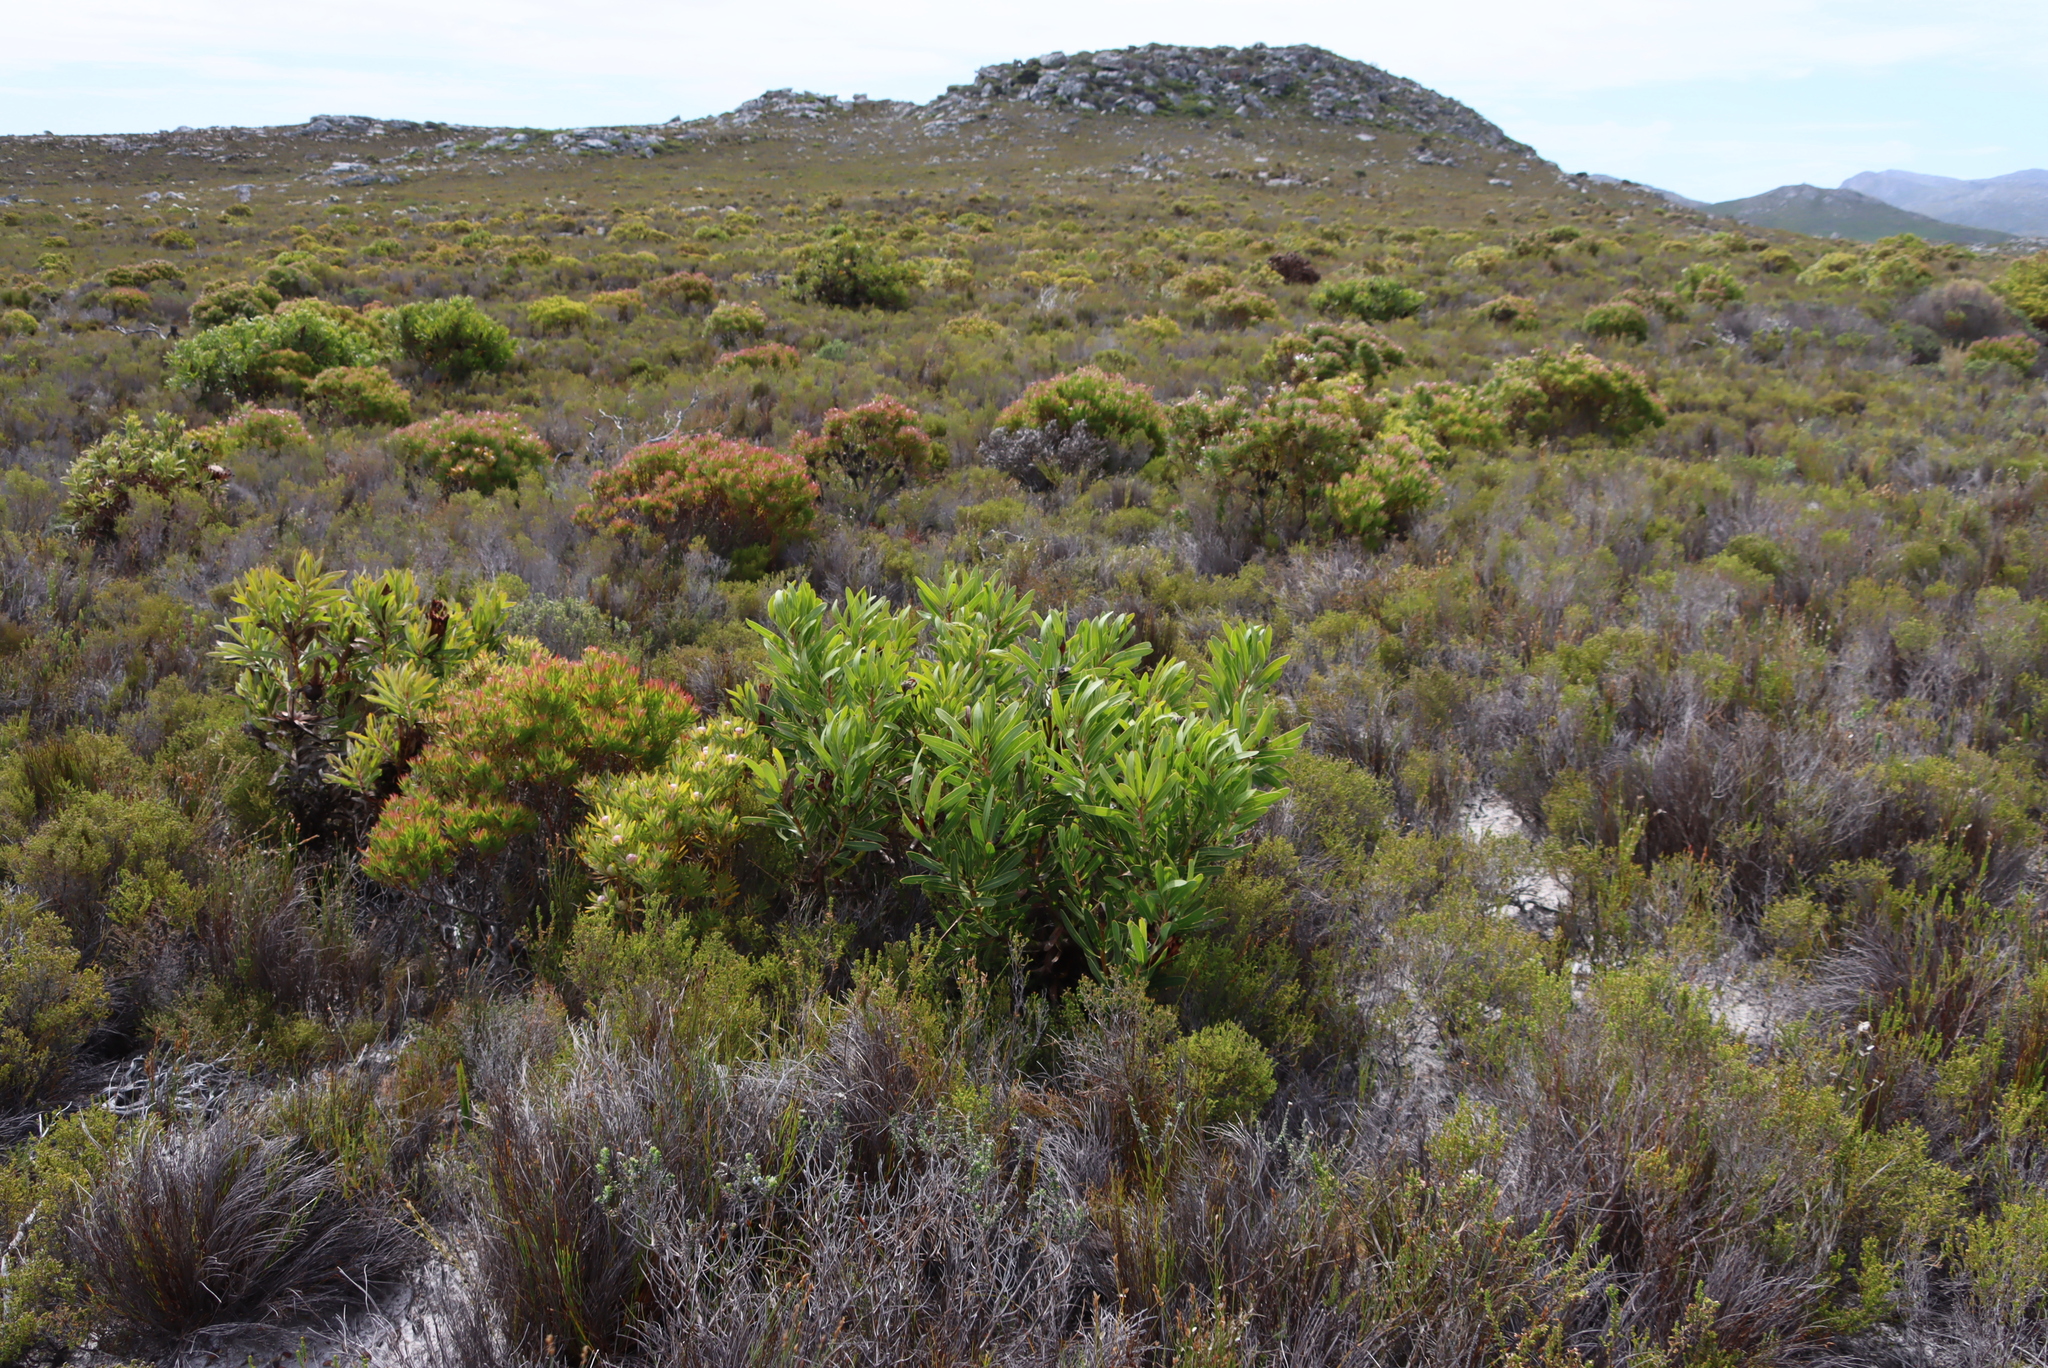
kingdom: Plantae
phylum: Tracheophyta
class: Magnoliopsida
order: Proteales
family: Proteaceae
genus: Protea
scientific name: Protea lepidocarpodendron
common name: Black-bearded protea
